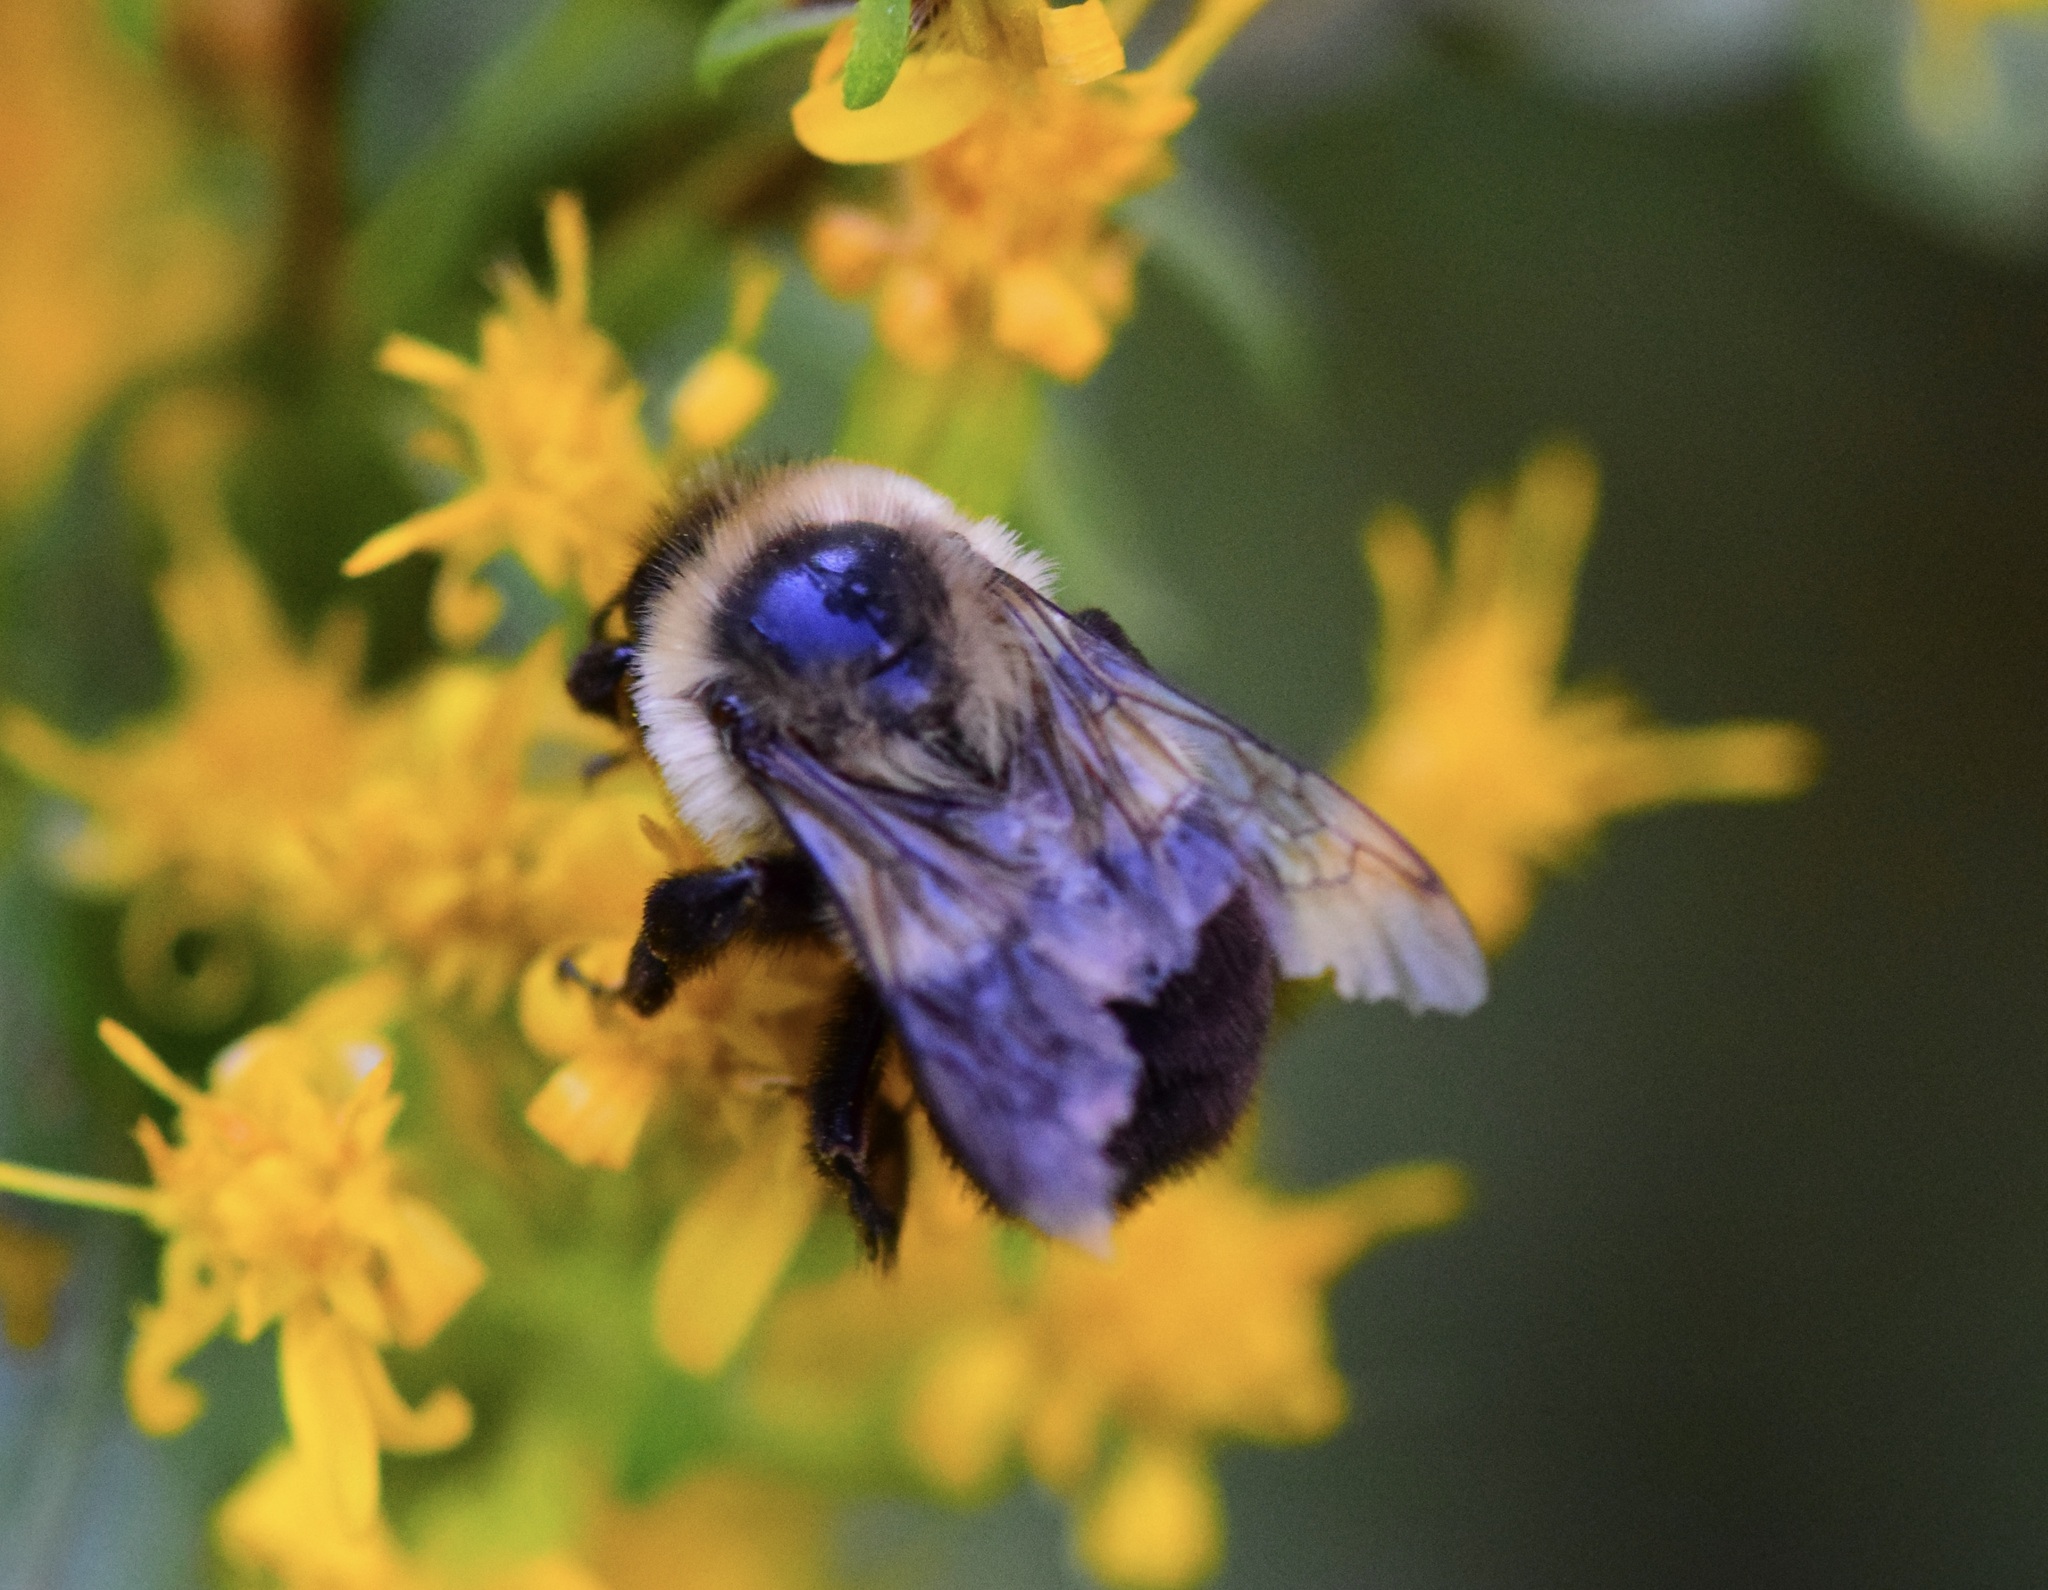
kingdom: Animalia
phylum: Arthropoda
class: Insecta
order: Hymenoptera
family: Apidae
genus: Bombus
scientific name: Bombus impatiens
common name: Common eastern bumble bee
